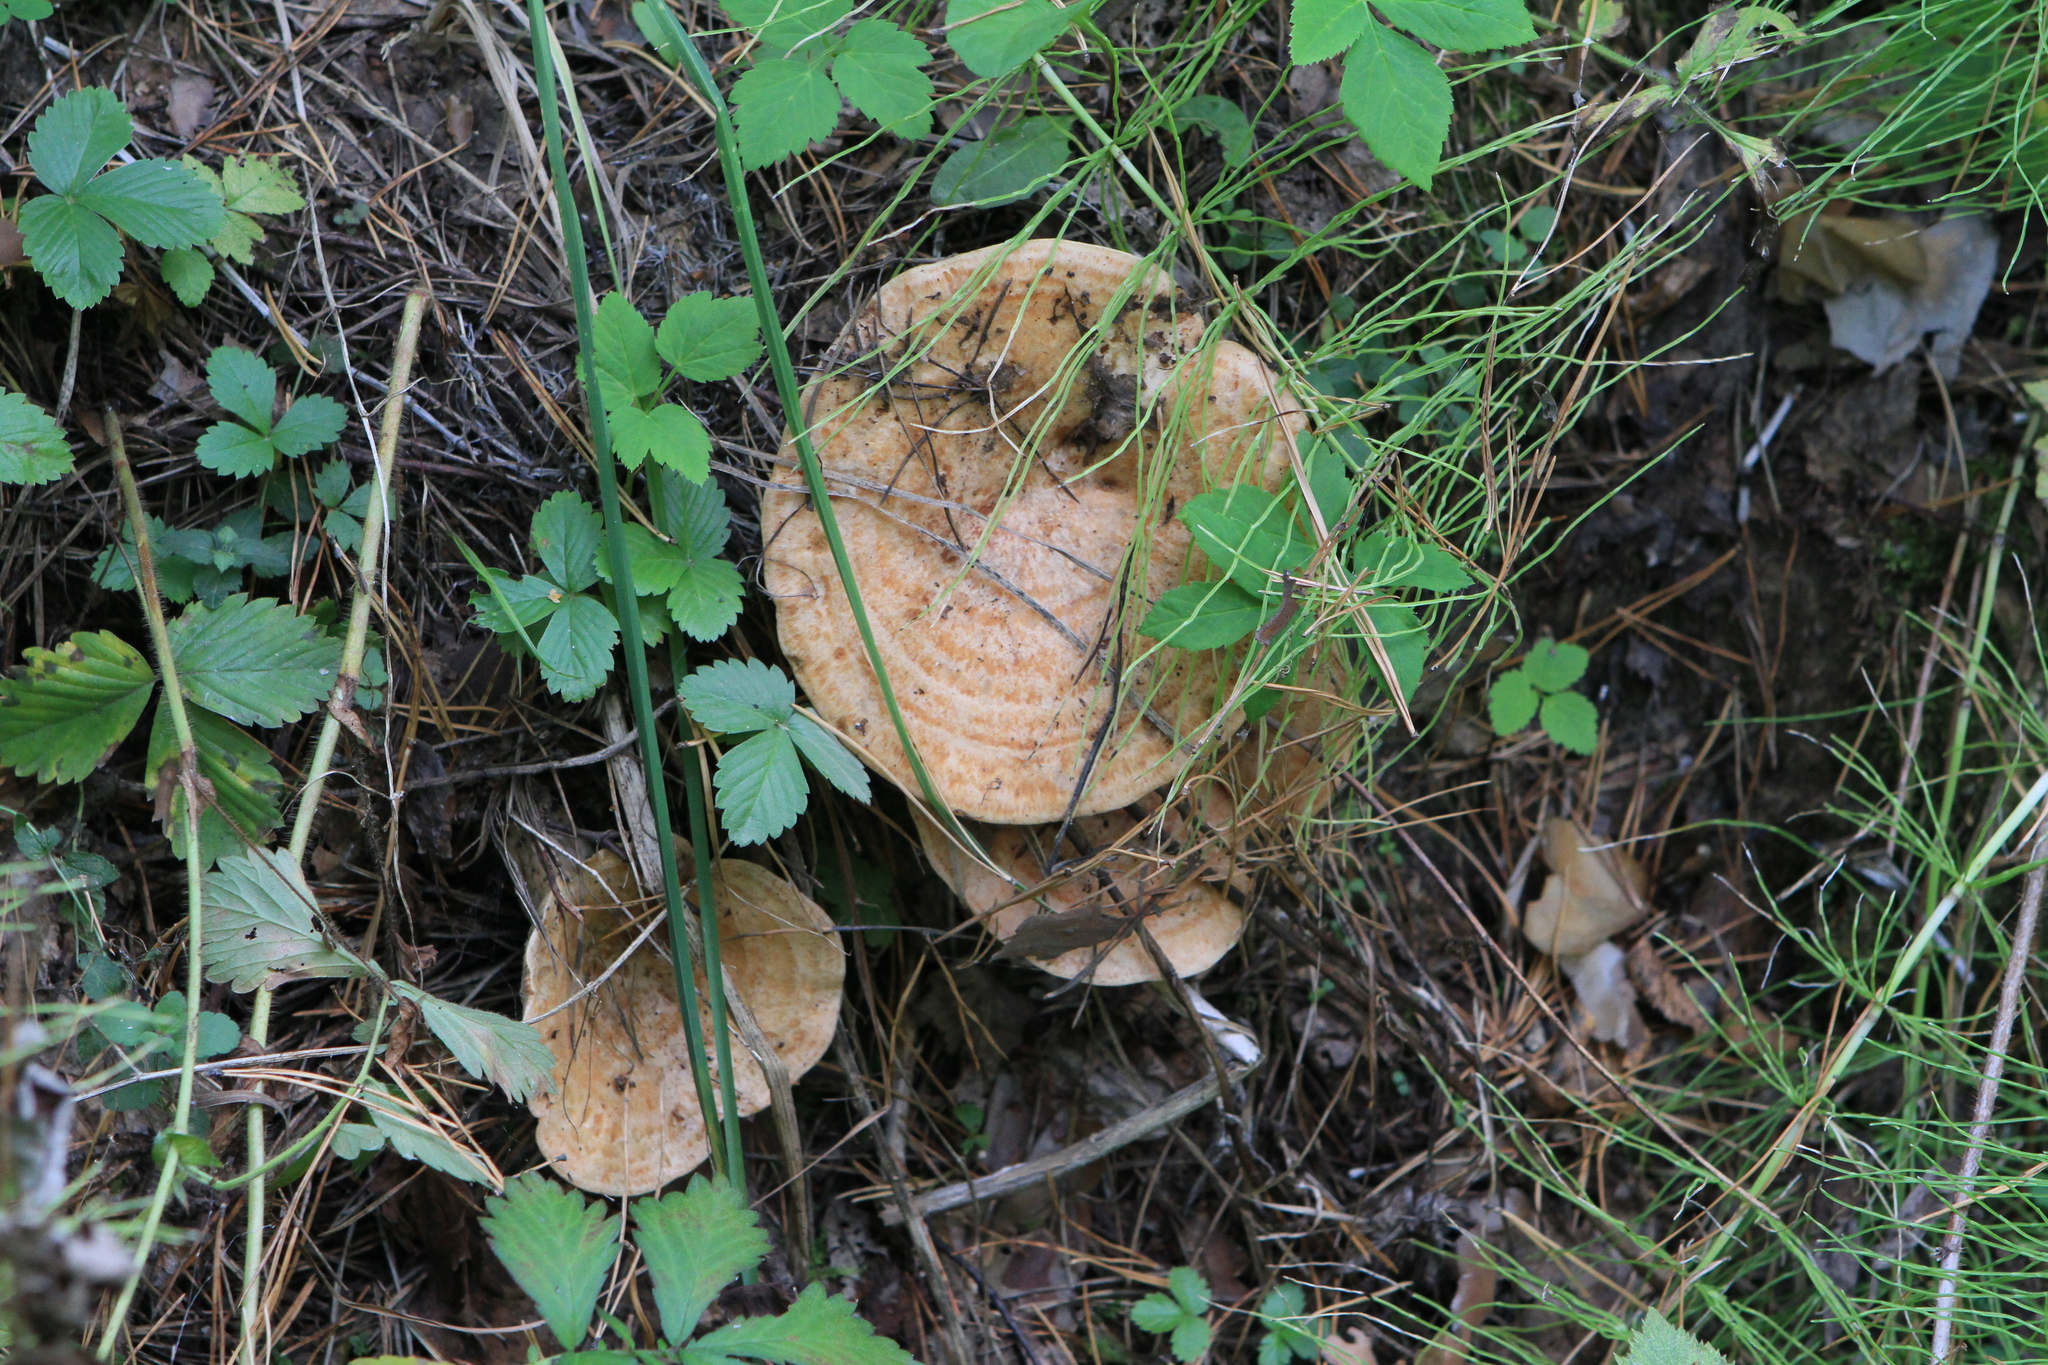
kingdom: Plantae
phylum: Tracheophyta
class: Polypodiopsida
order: Equisetales
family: Equisetaceae
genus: Equisetum
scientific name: Equisetum pratense
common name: Meadow horsetail
